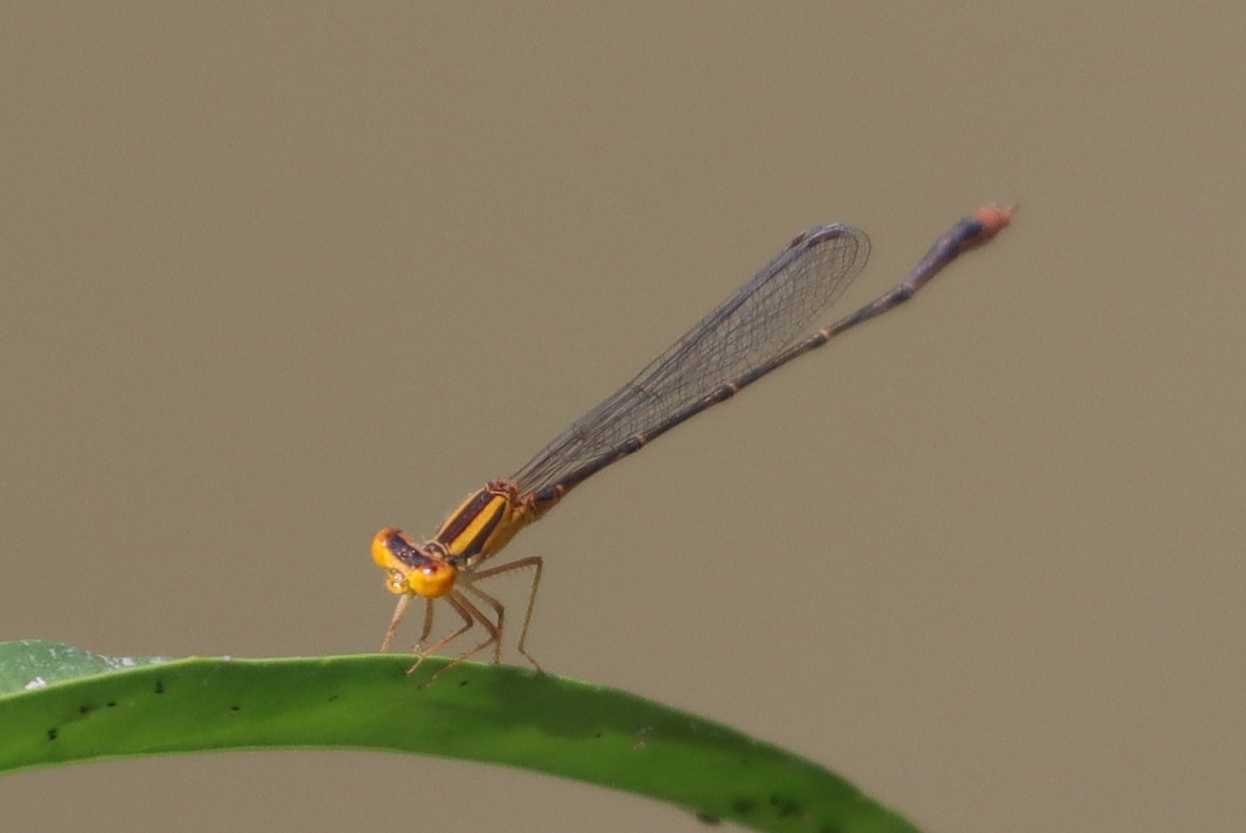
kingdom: Animalia
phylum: Arthropoda
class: Insecta
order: Odonata
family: Coenagrionidae
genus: Enallagma
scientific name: Enallagma signatum
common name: Orange bluet
